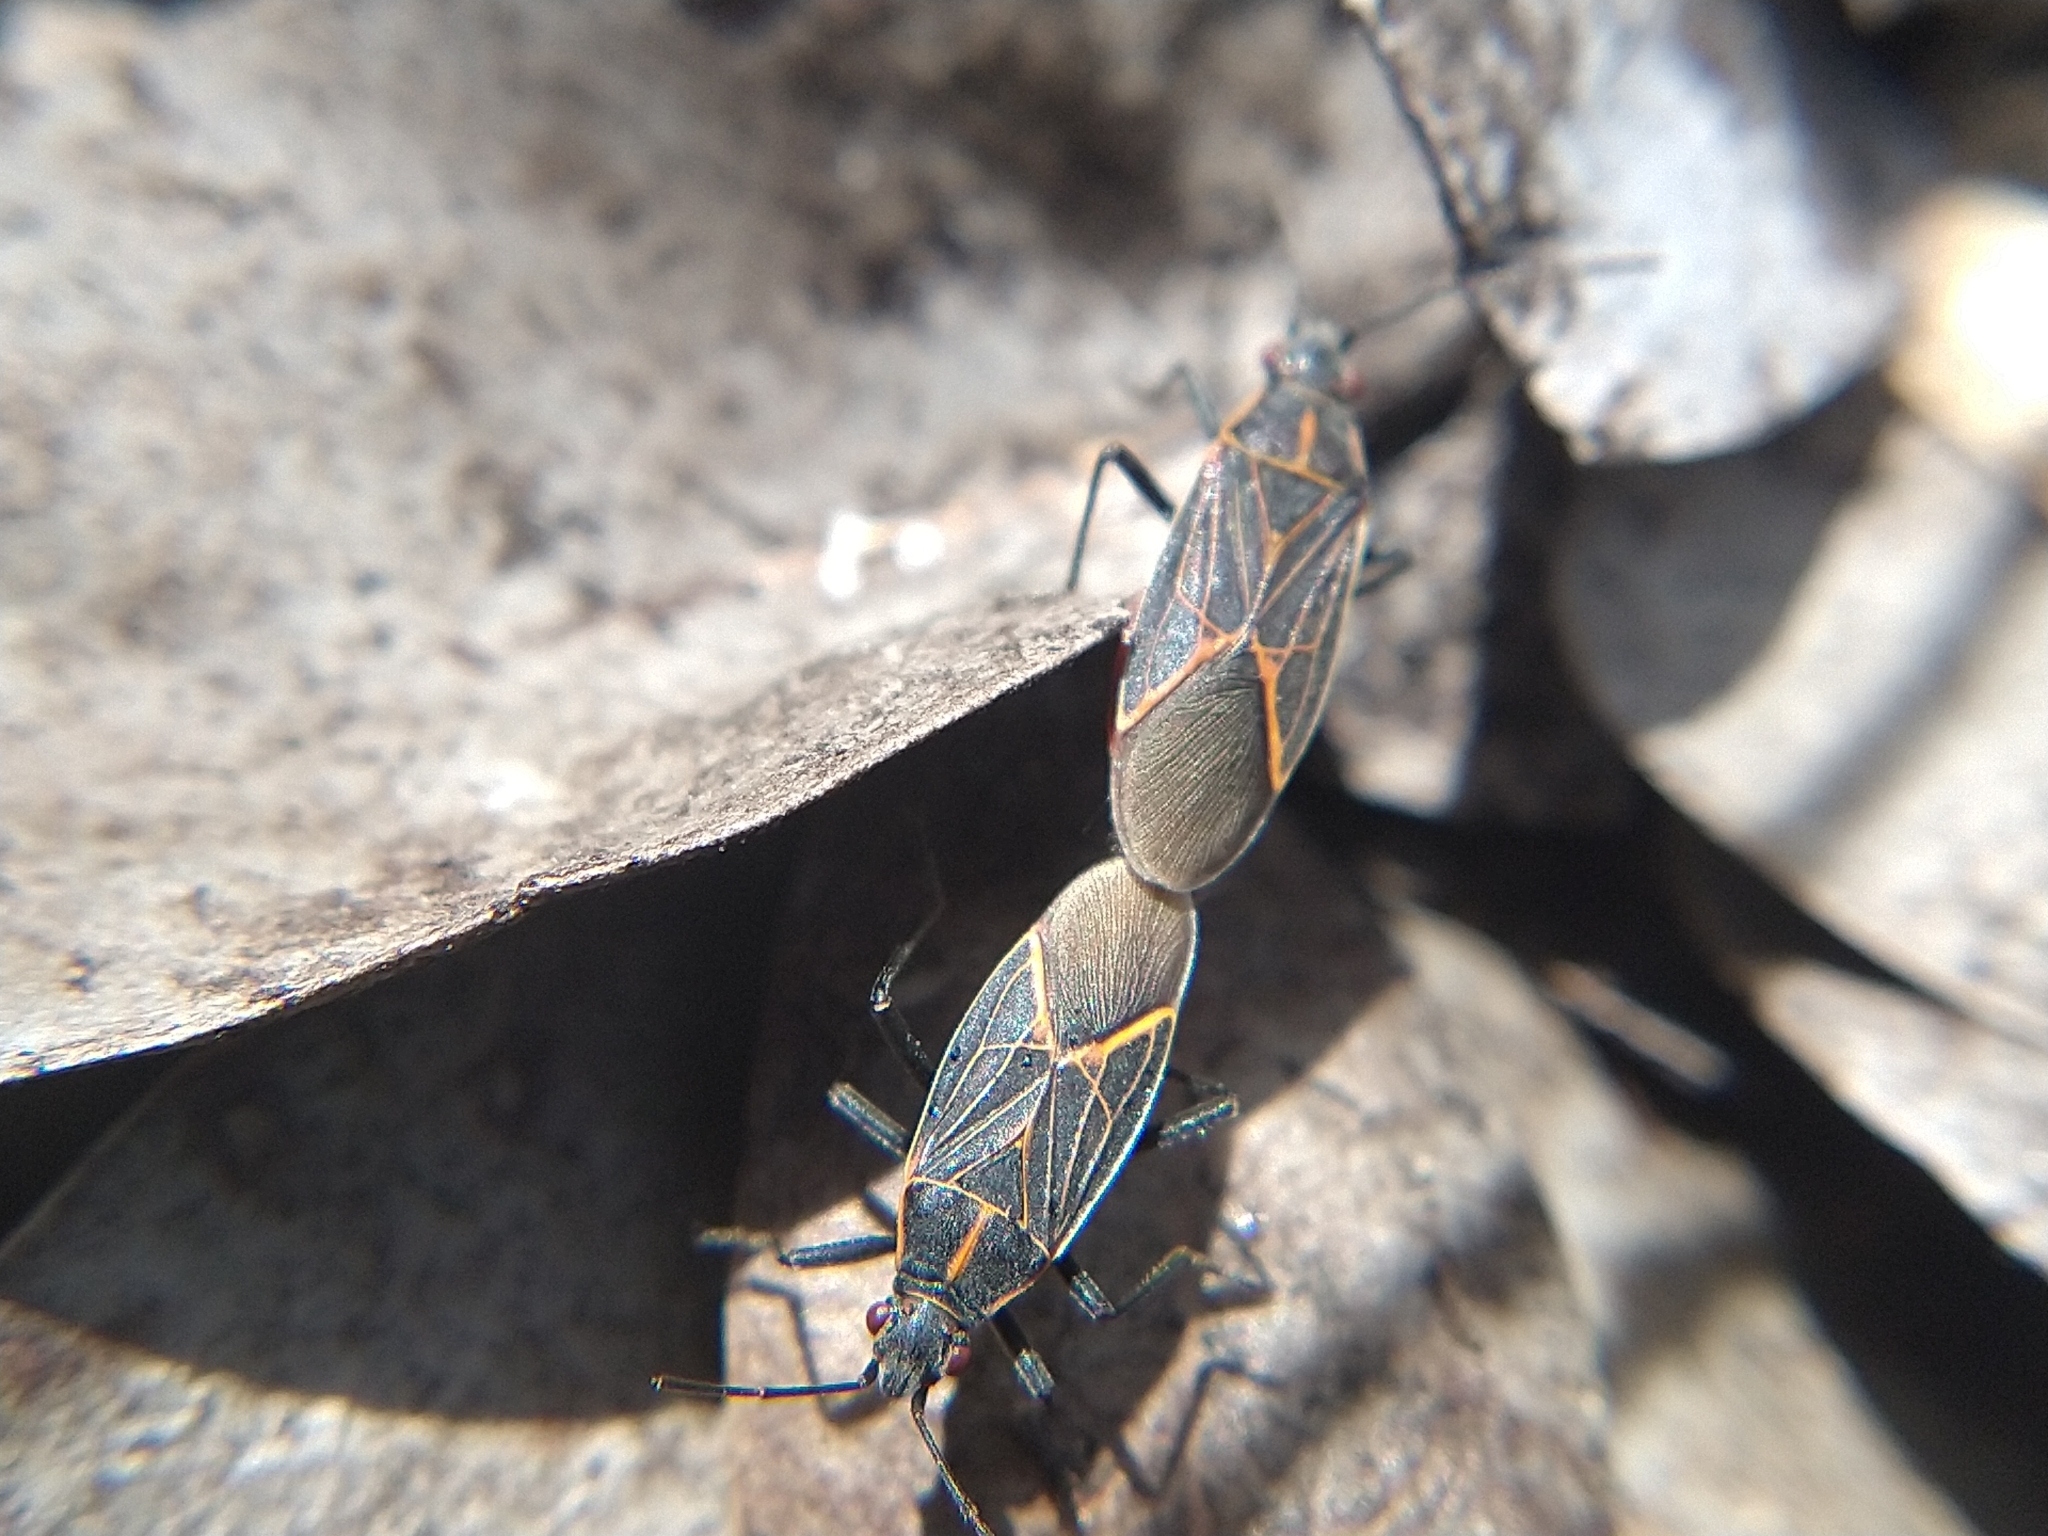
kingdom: Animalia
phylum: Arthropoda
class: Insecta
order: Hemiptera
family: Rhopalidae
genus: Boisea
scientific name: Boisea rubrolineata
